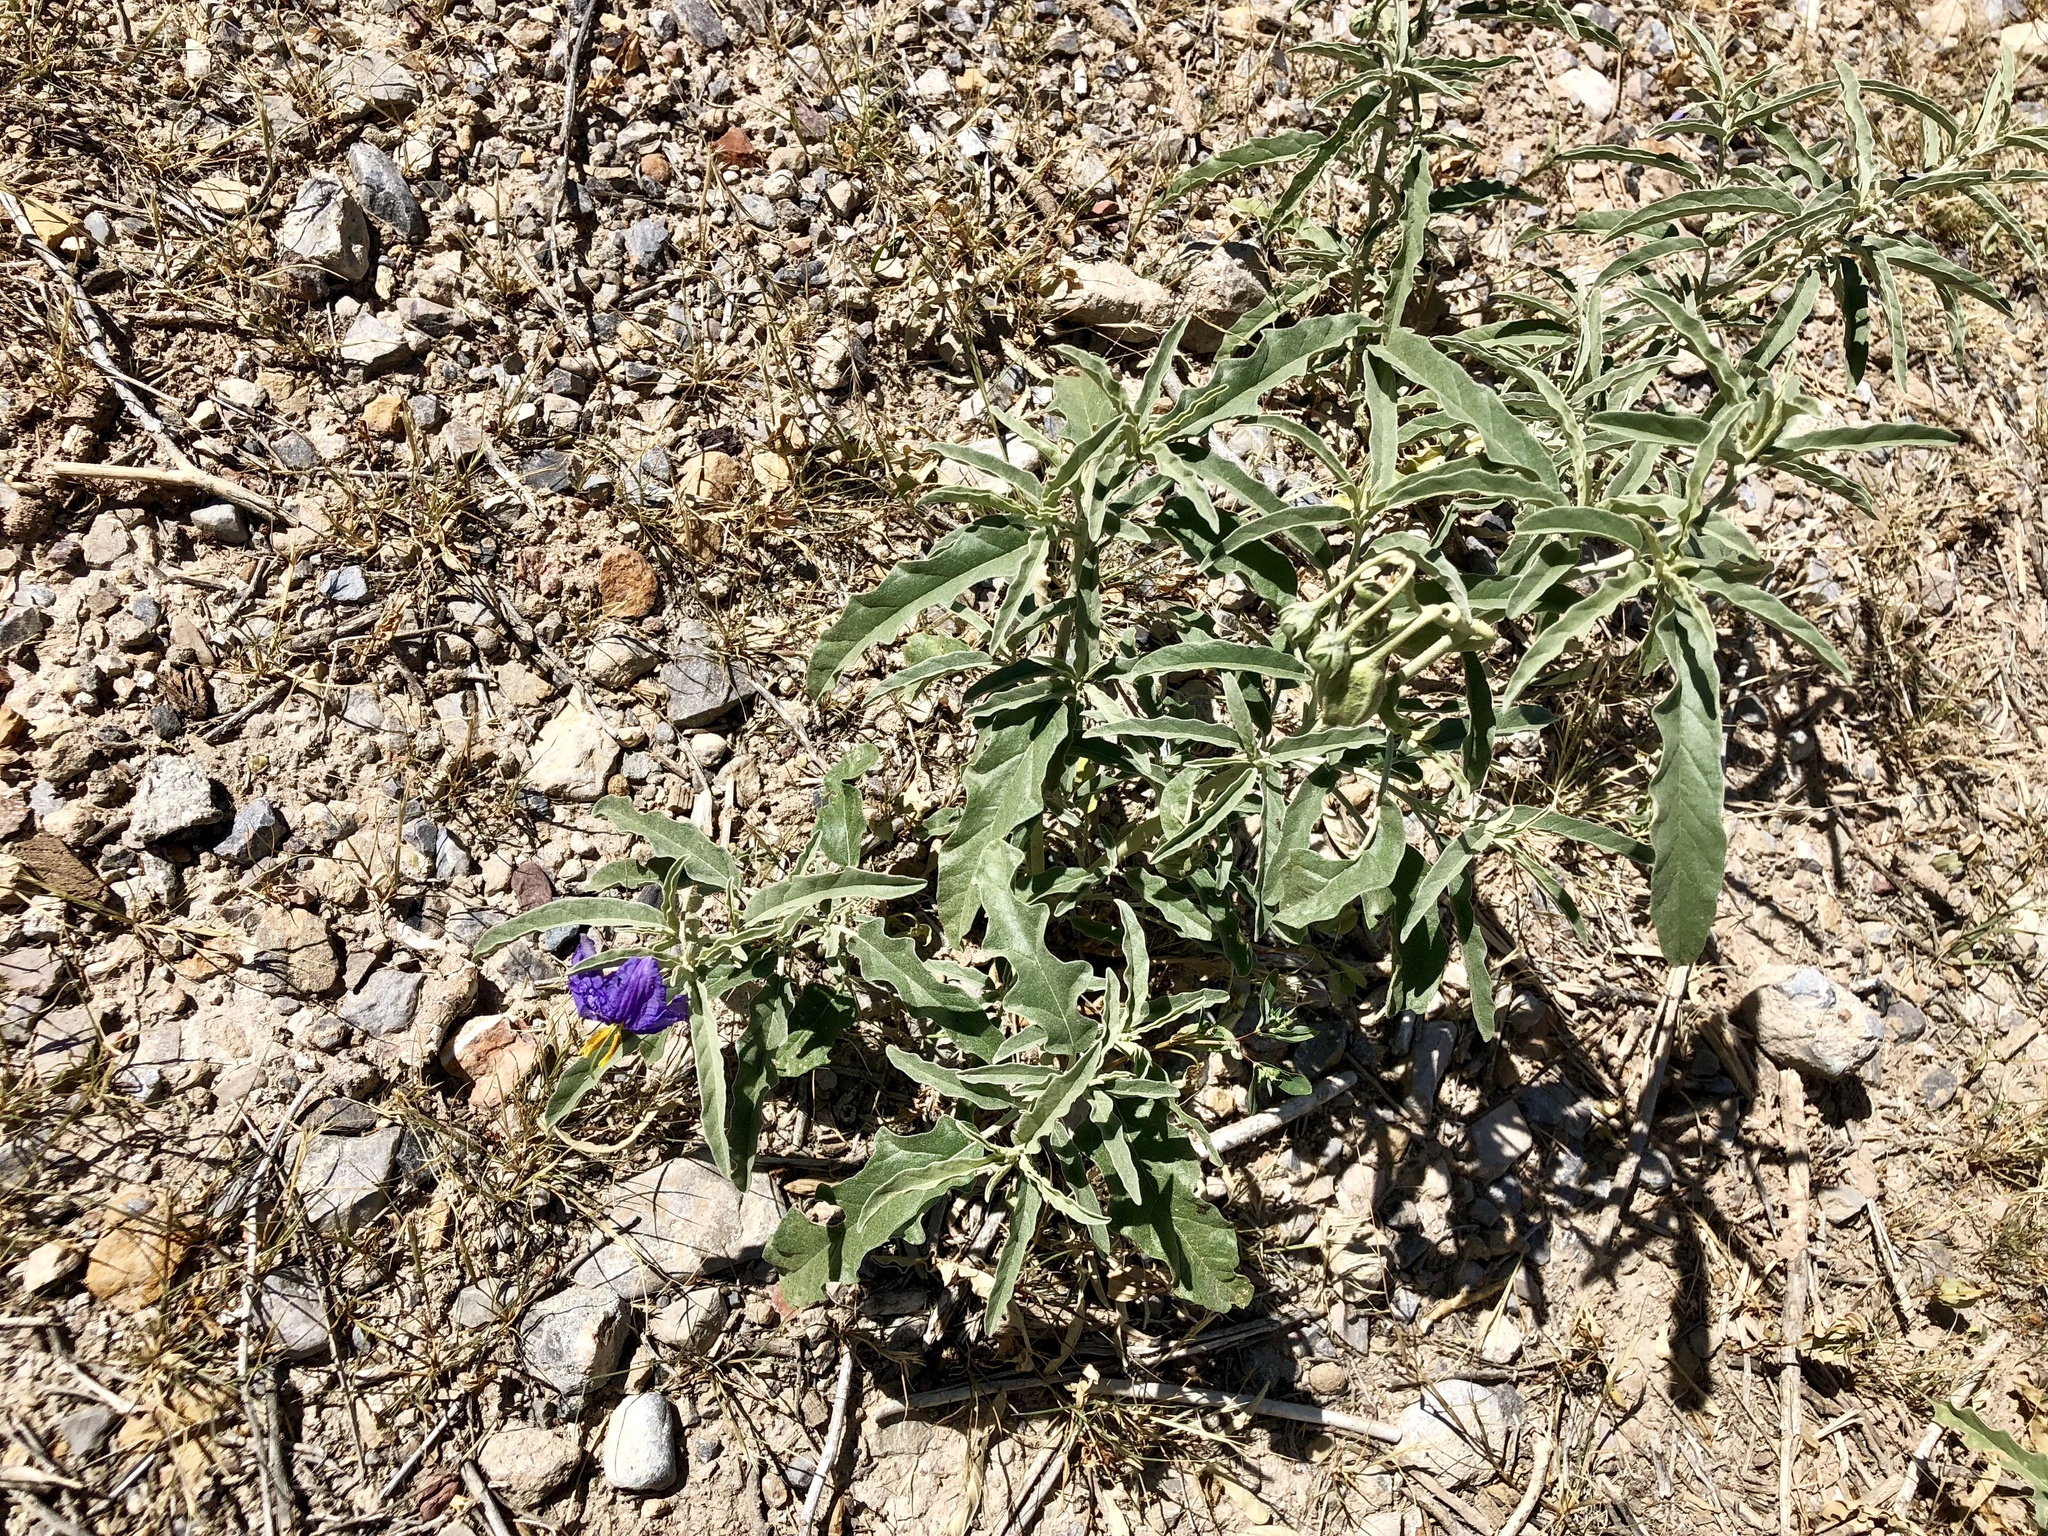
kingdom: Plantae
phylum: Tracheophyta
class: Magnoliopsida
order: Solanales
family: Solanaceae
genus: Solanum
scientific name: Solanum elaeagnifolium
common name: Silverleaf nightshade
